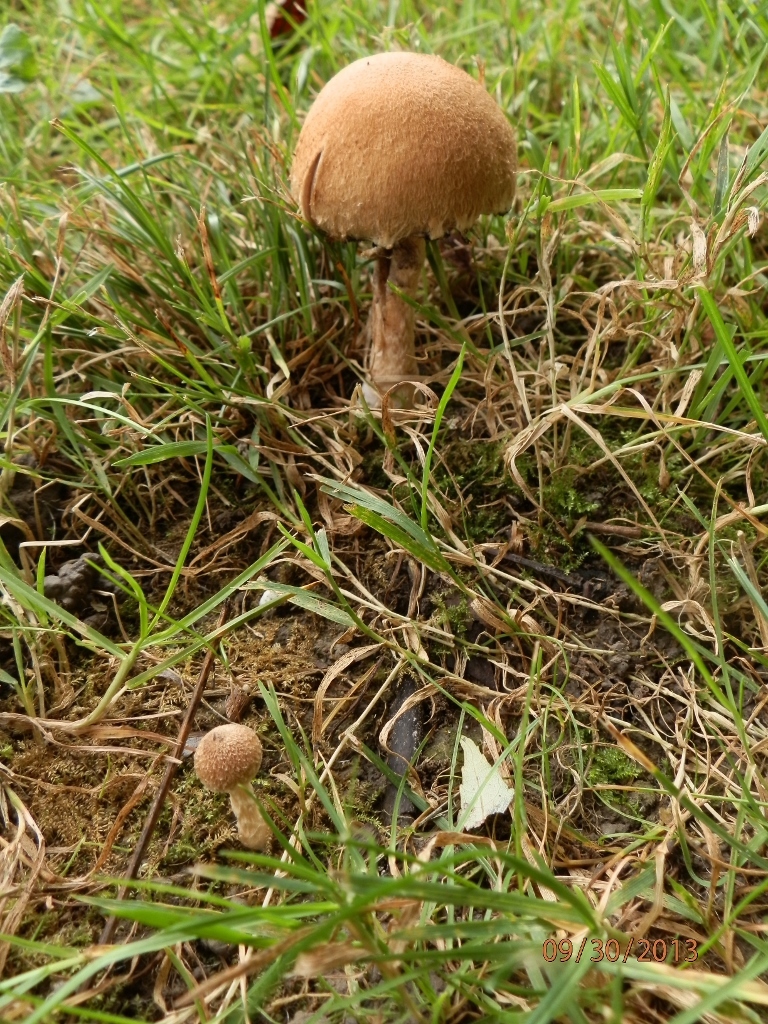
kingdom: Fungi
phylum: Basidiomycota
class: Agaricomycetes
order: Agaricales
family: Psathyrellaceae
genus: Lacrymaria
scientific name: Lacrymaria lacrymabunda
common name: Weeping widow
